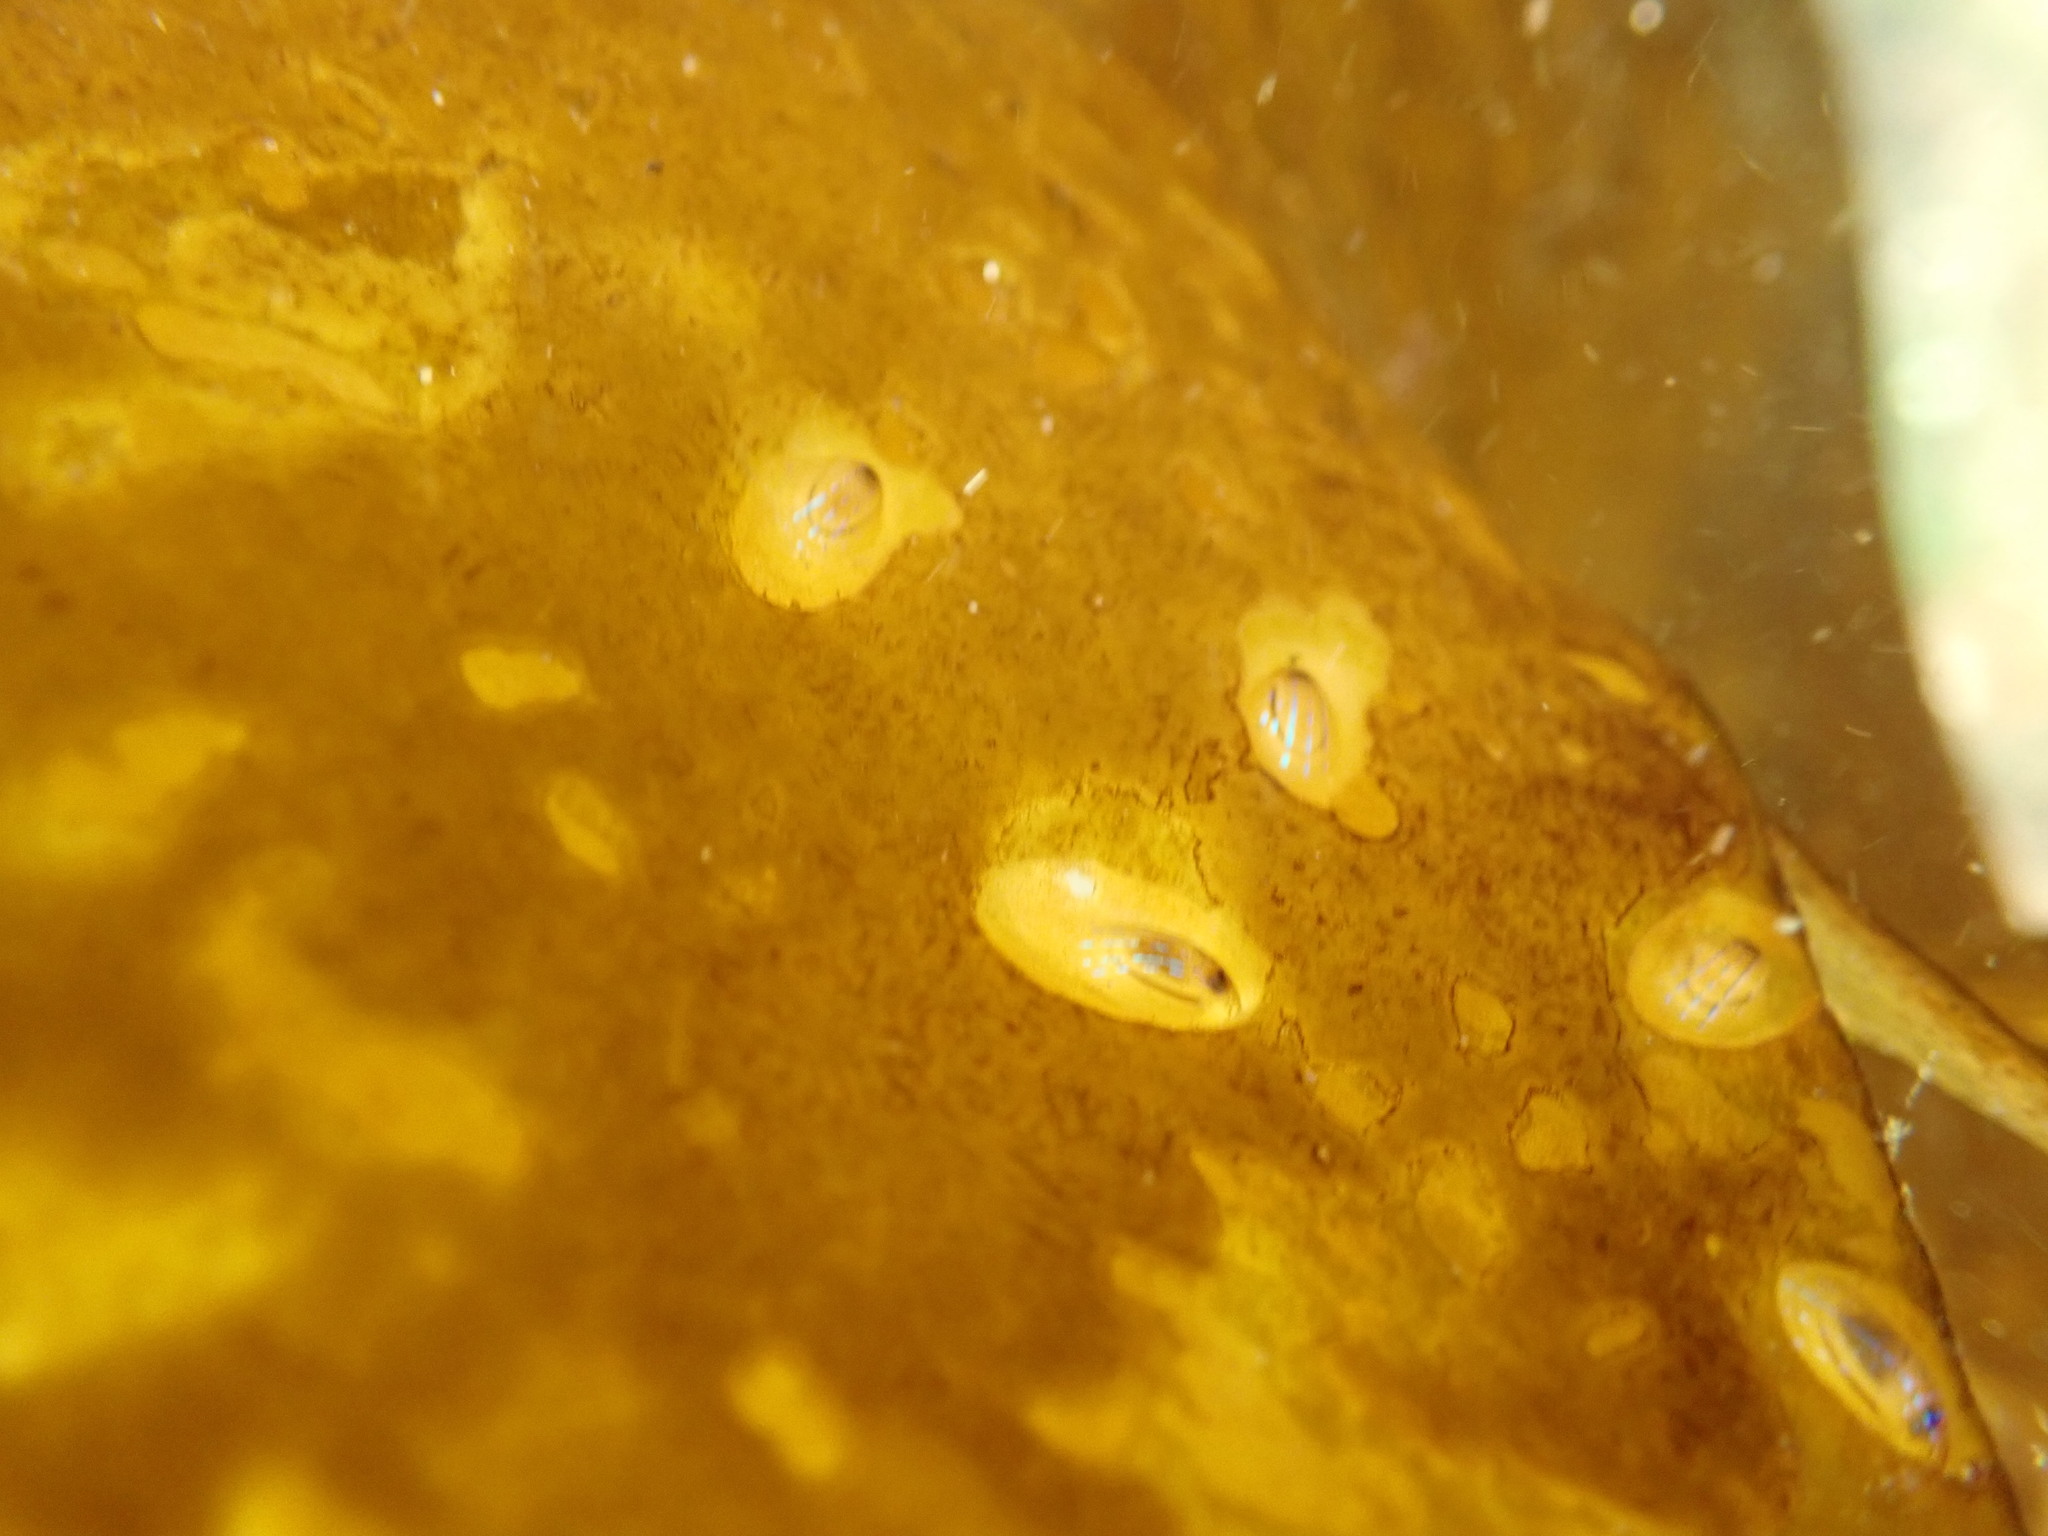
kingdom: Animalia
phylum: Mollusca
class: Gastropoda
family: Patellidae
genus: Patella
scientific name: Patella pellucida
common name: Blue-rayed limpet
